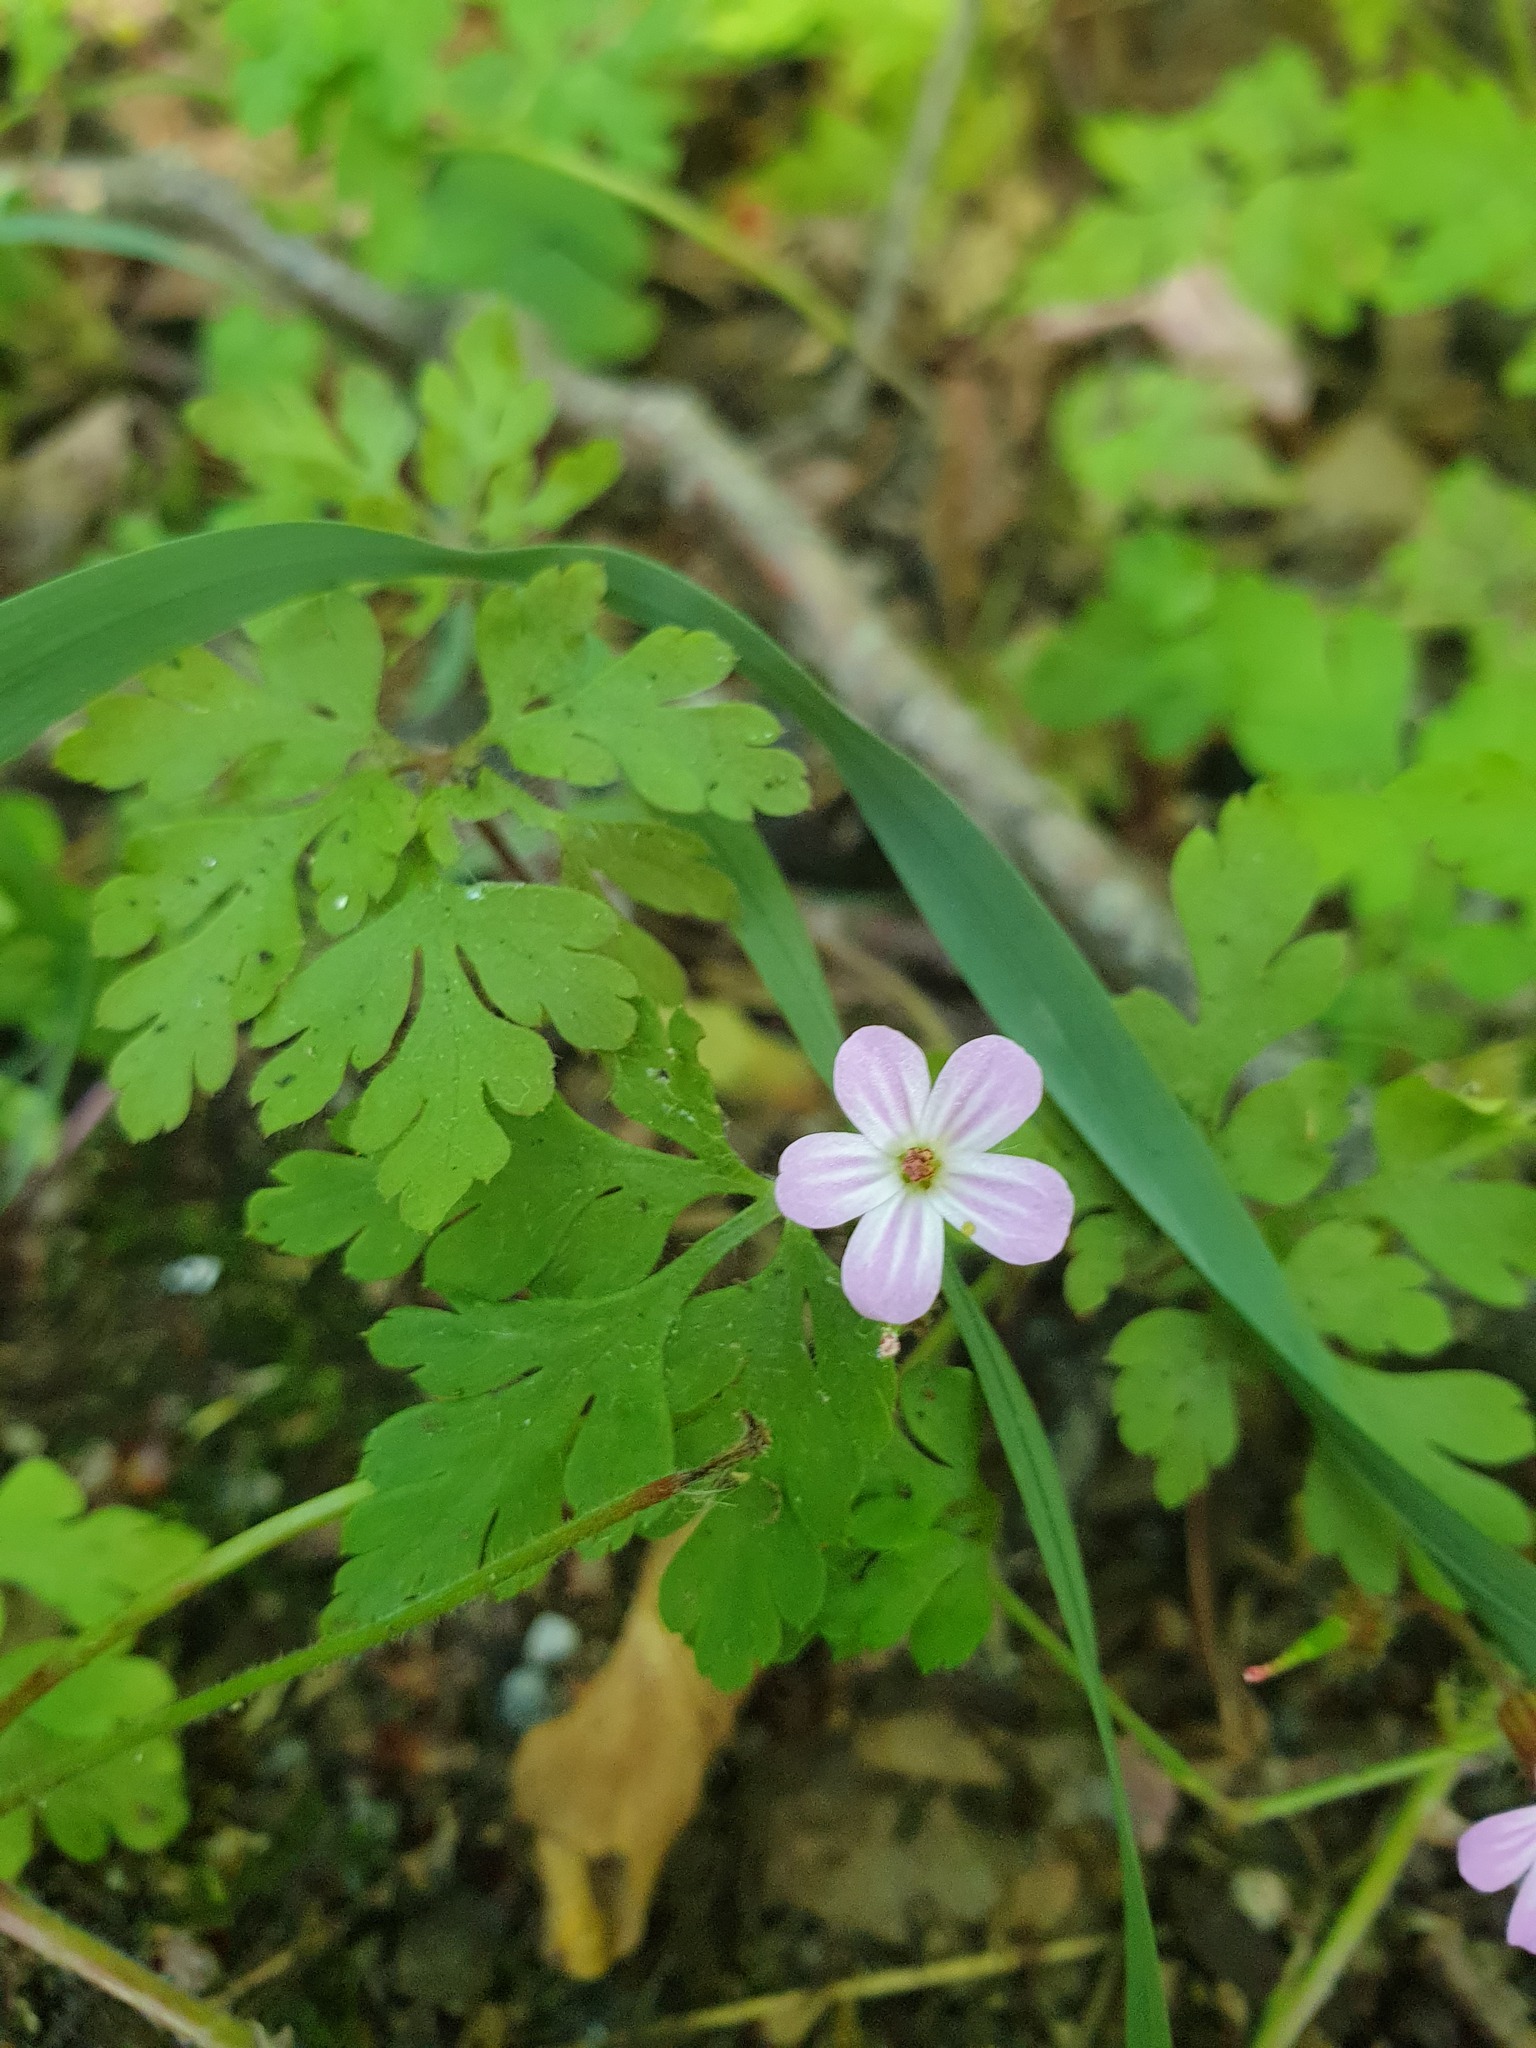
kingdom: Plantae
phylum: Tracheophyta
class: Magnoliopsida
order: Geraniales
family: Geraniaceae
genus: Geranium
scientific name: Geranium robertianum
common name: Herb-robert
